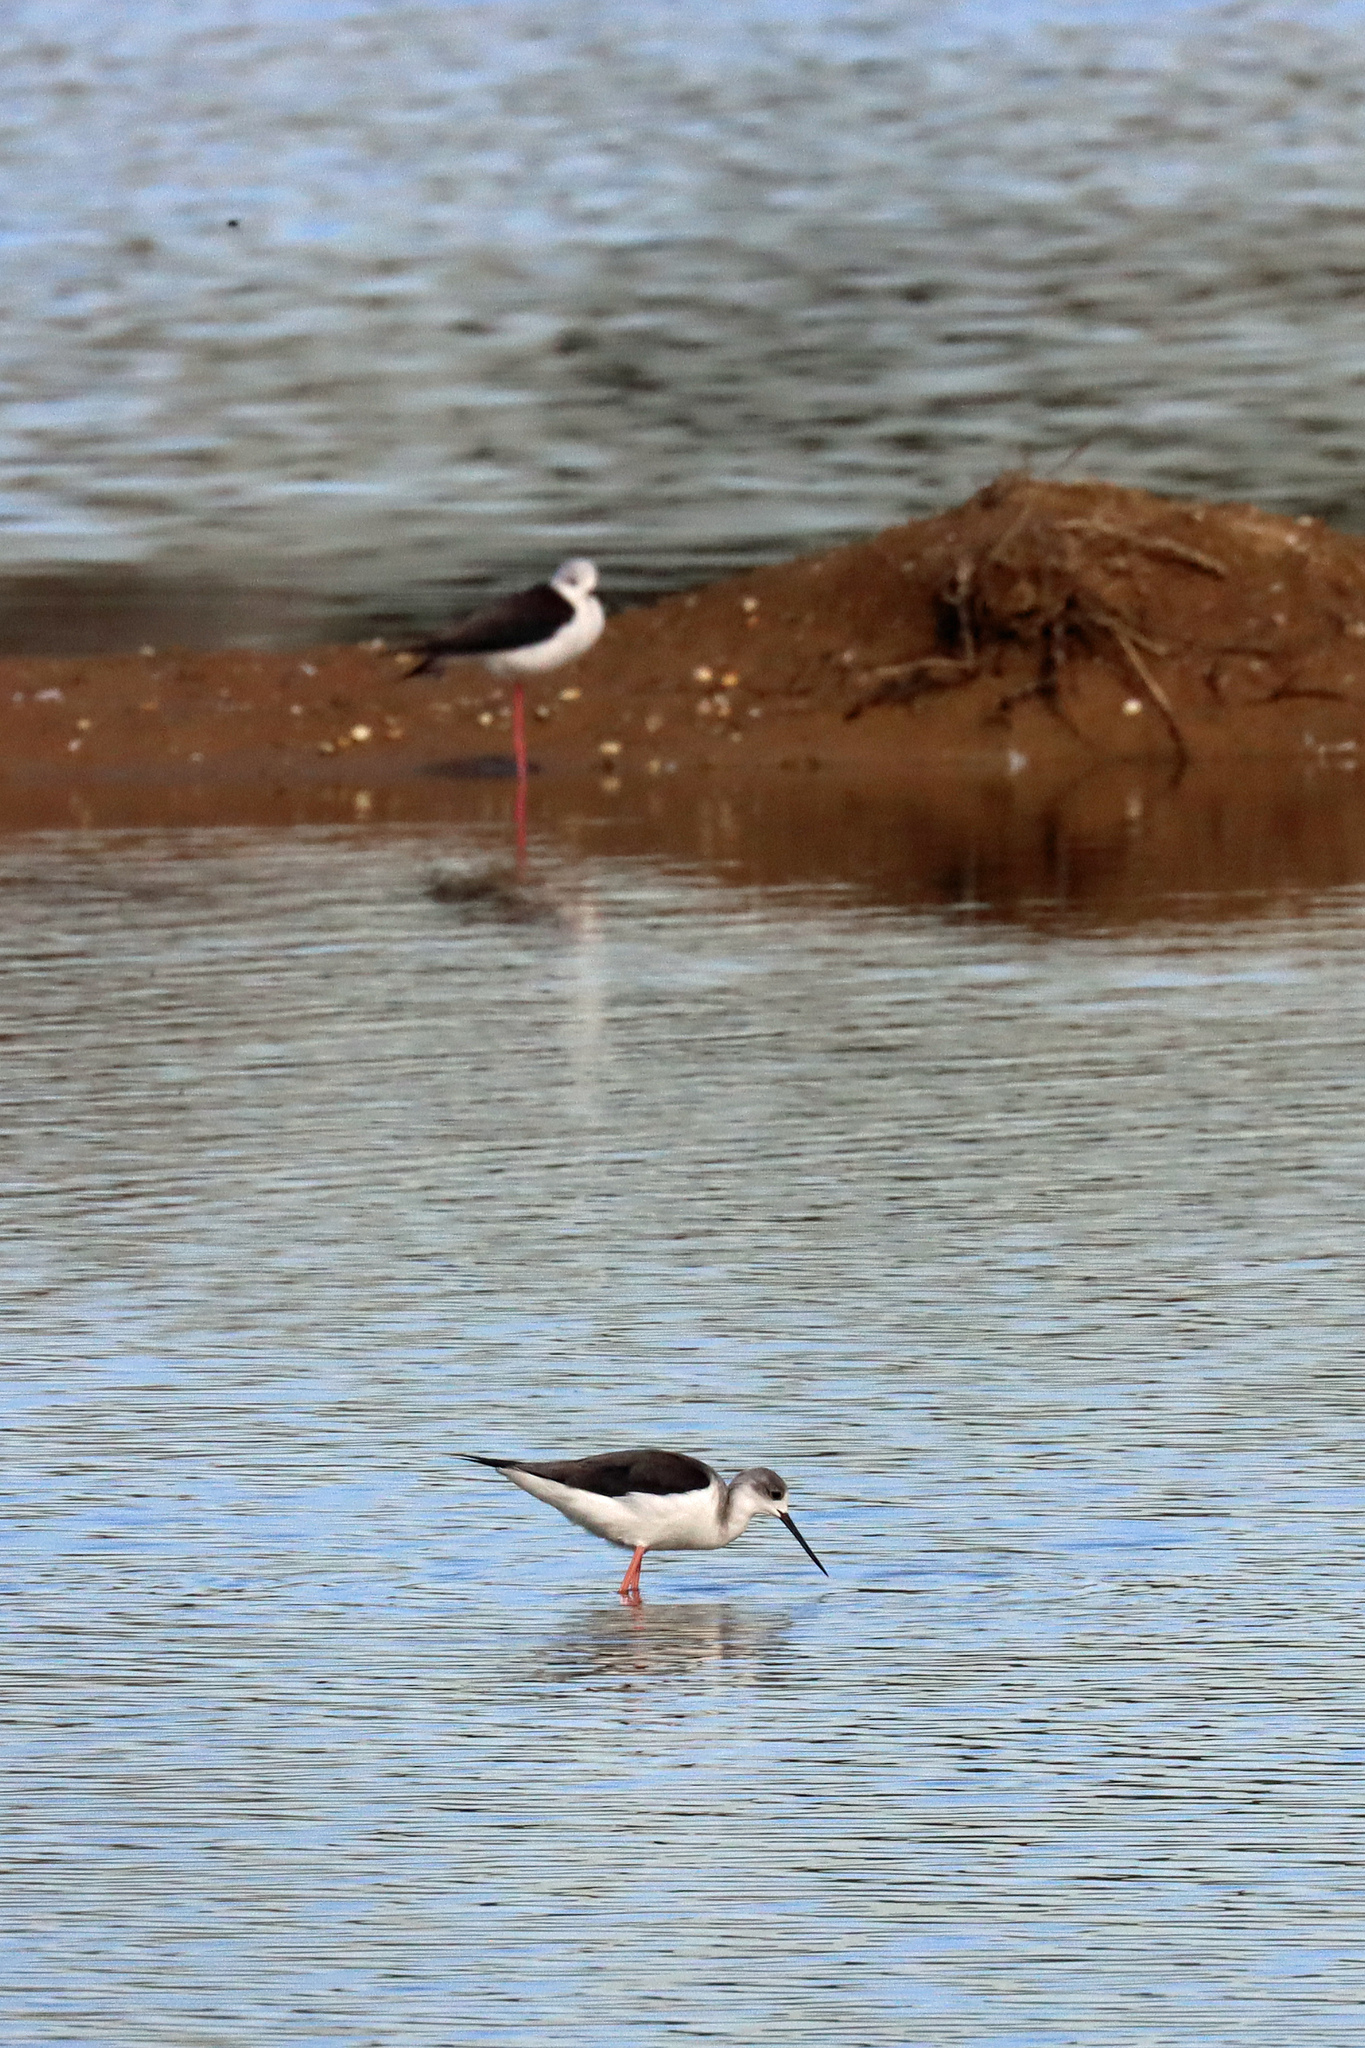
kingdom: Animalia
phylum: Chordata
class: Aves
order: Charadriiformes
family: Recurvirostridae
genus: Himantopus
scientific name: Himantopus himantopus
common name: Black-winged stilt
